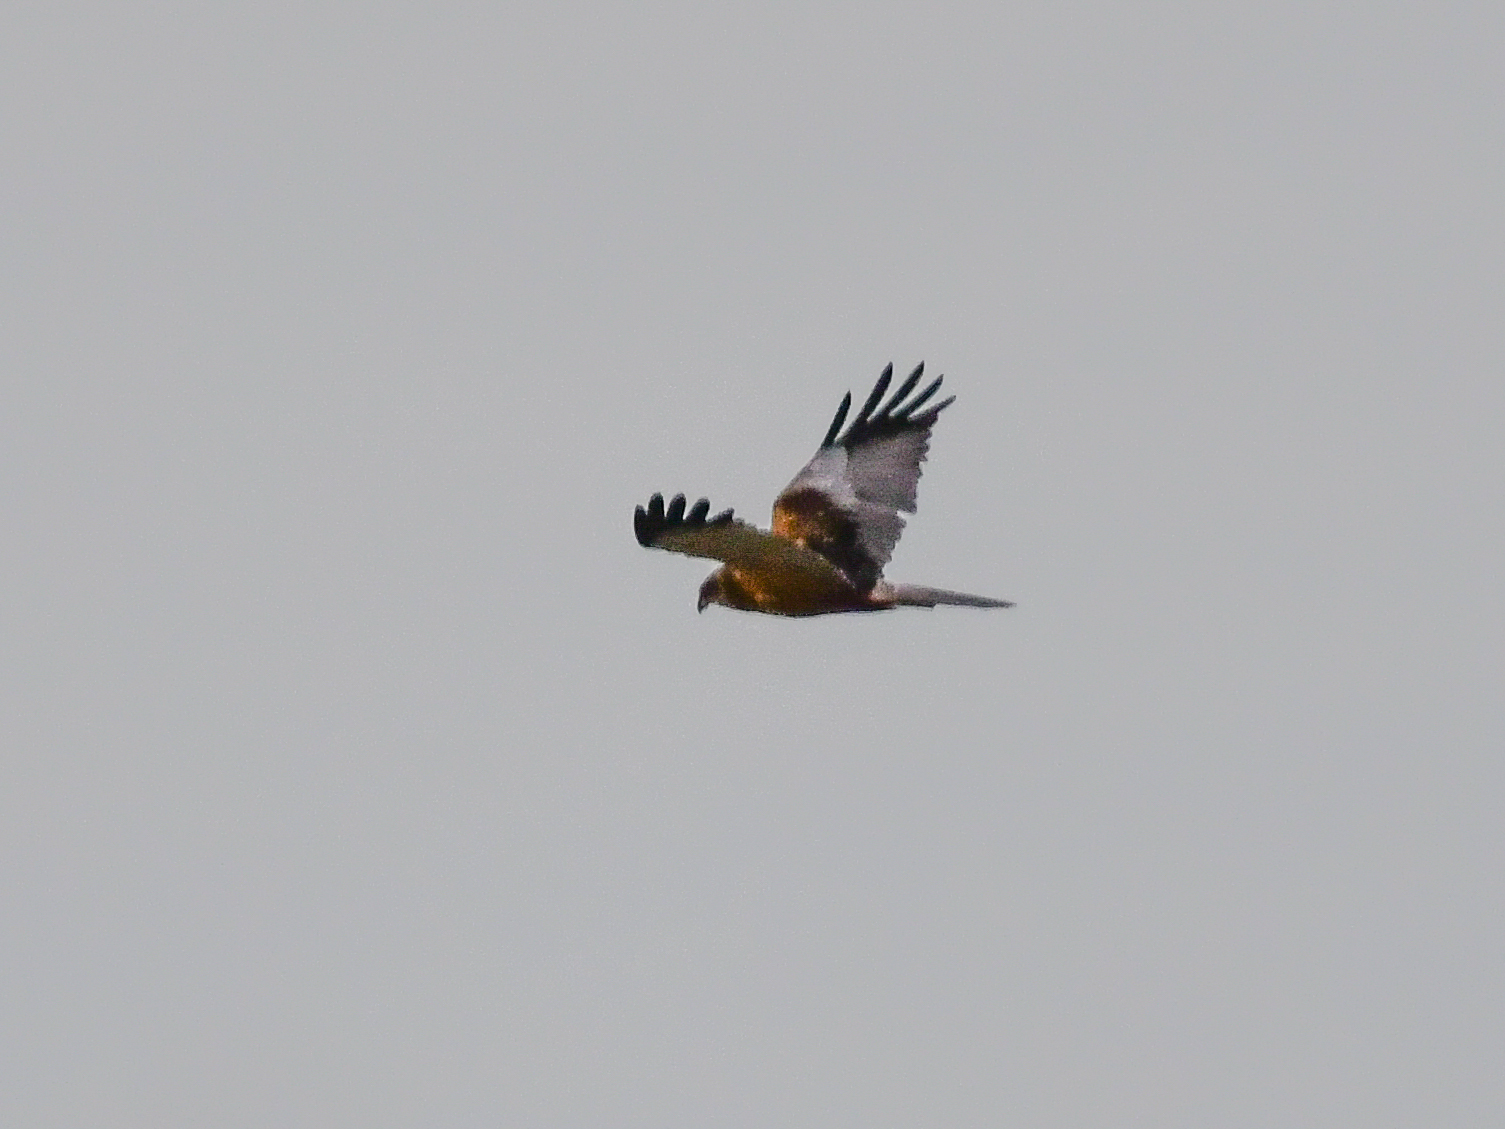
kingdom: Animalia
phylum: Chordata
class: Aves
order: Accipitriformes
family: Accipitridae
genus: Circus
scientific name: Circus aeruginosus
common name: Western marsh harrier
